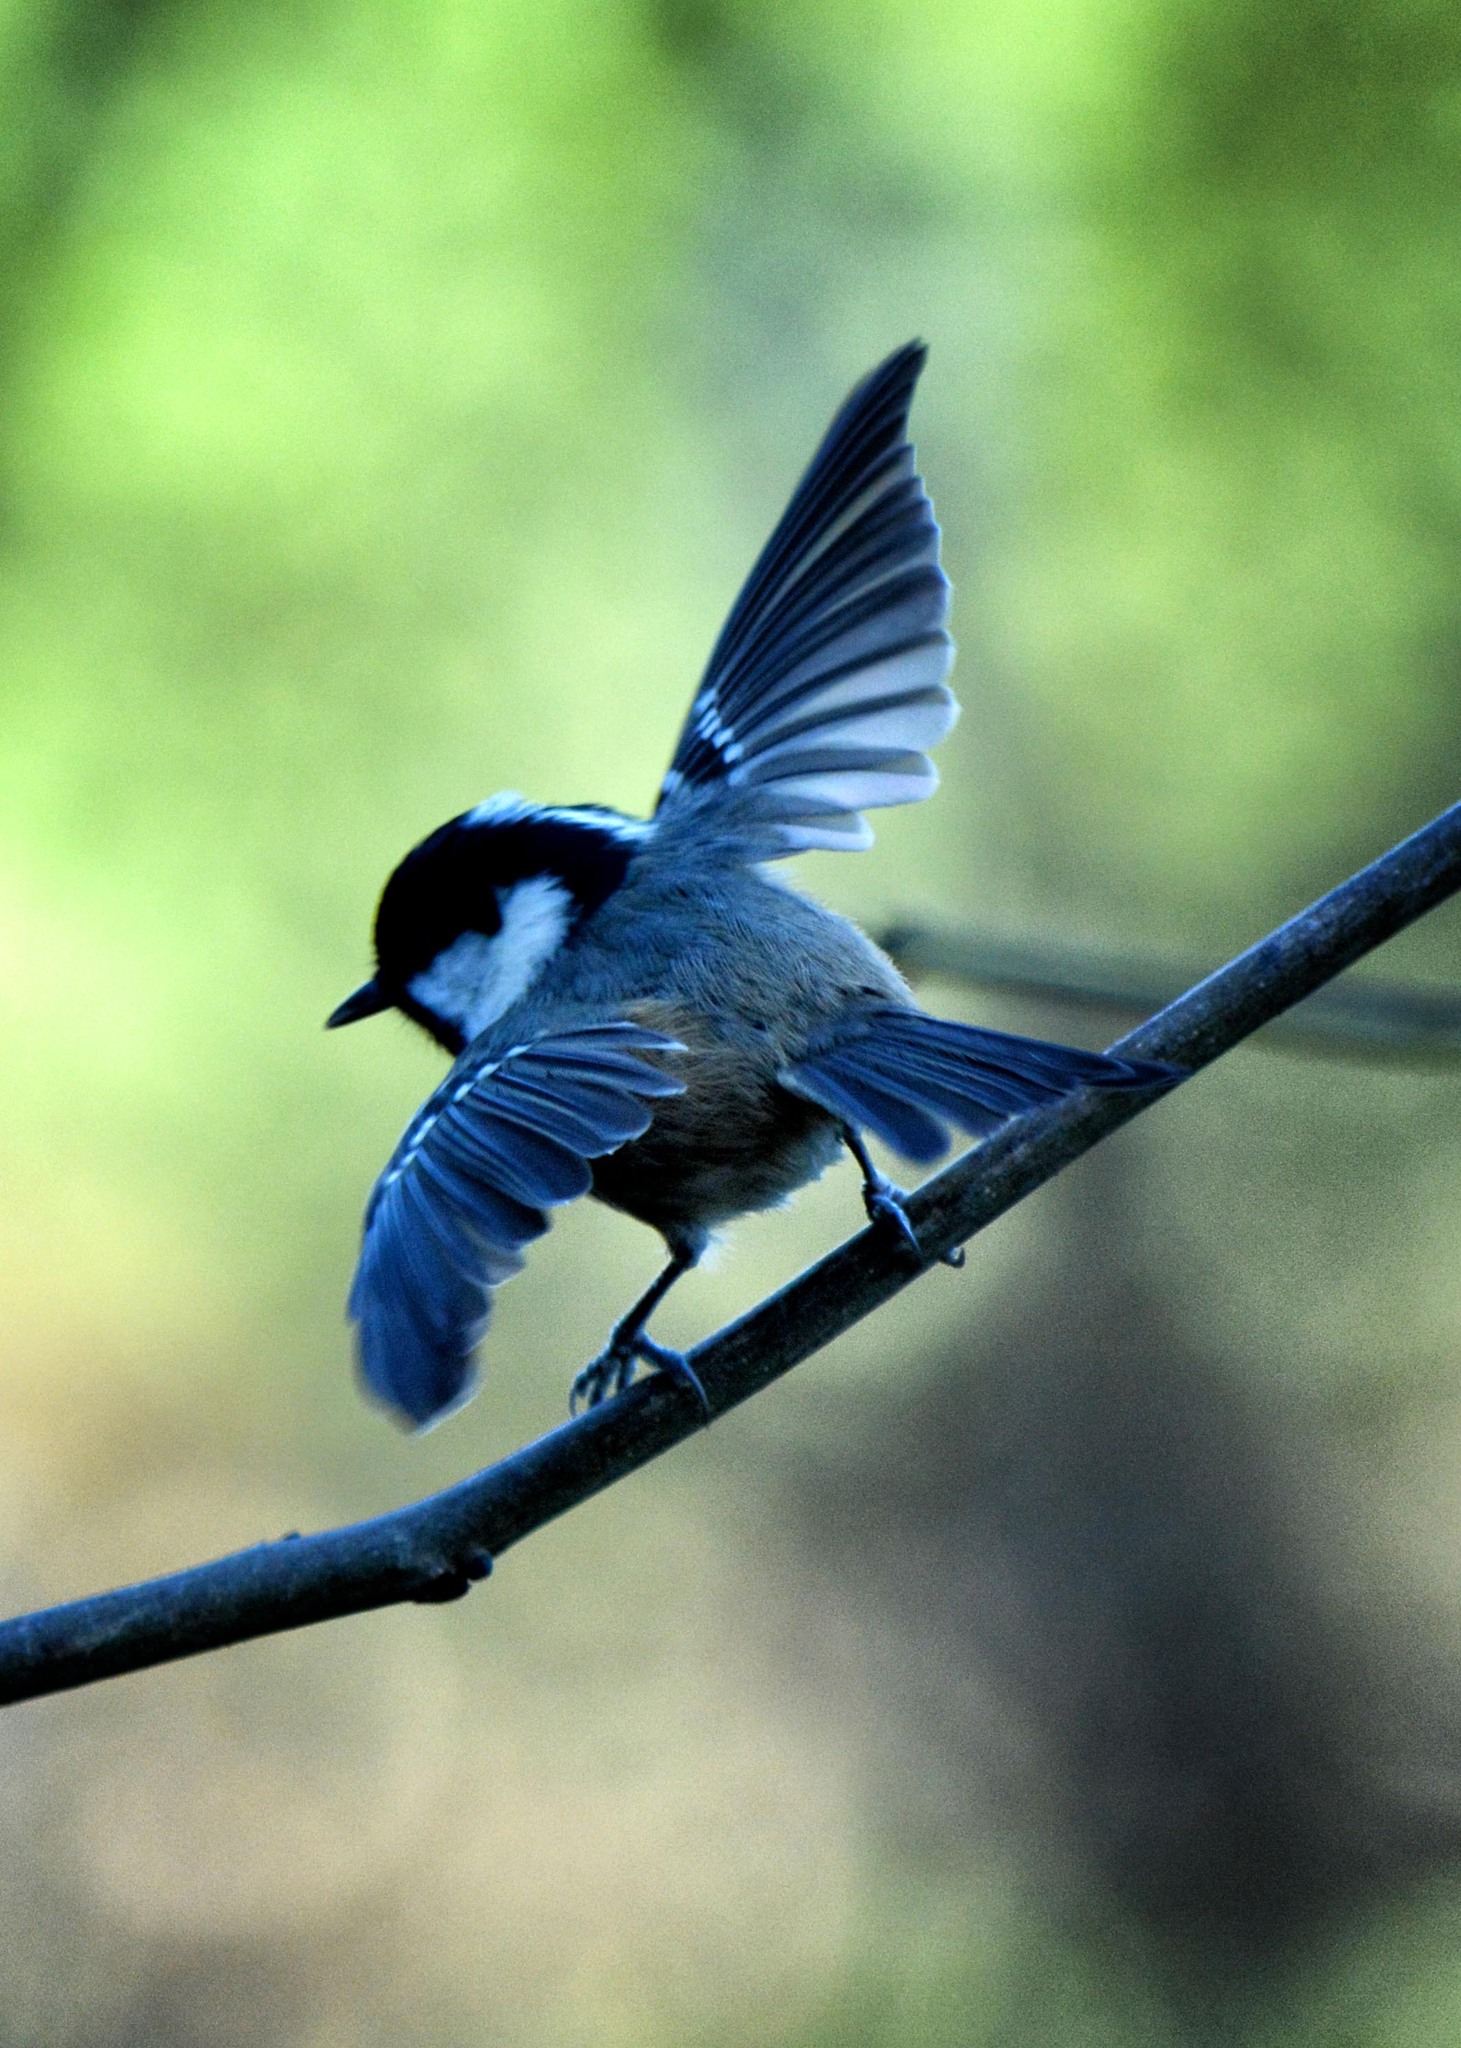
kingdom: Animalia
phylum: Chordata
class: Aves
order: Passeriformes
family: Paridae
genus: Periparus
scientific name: Periparus ater
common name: Coal tit
